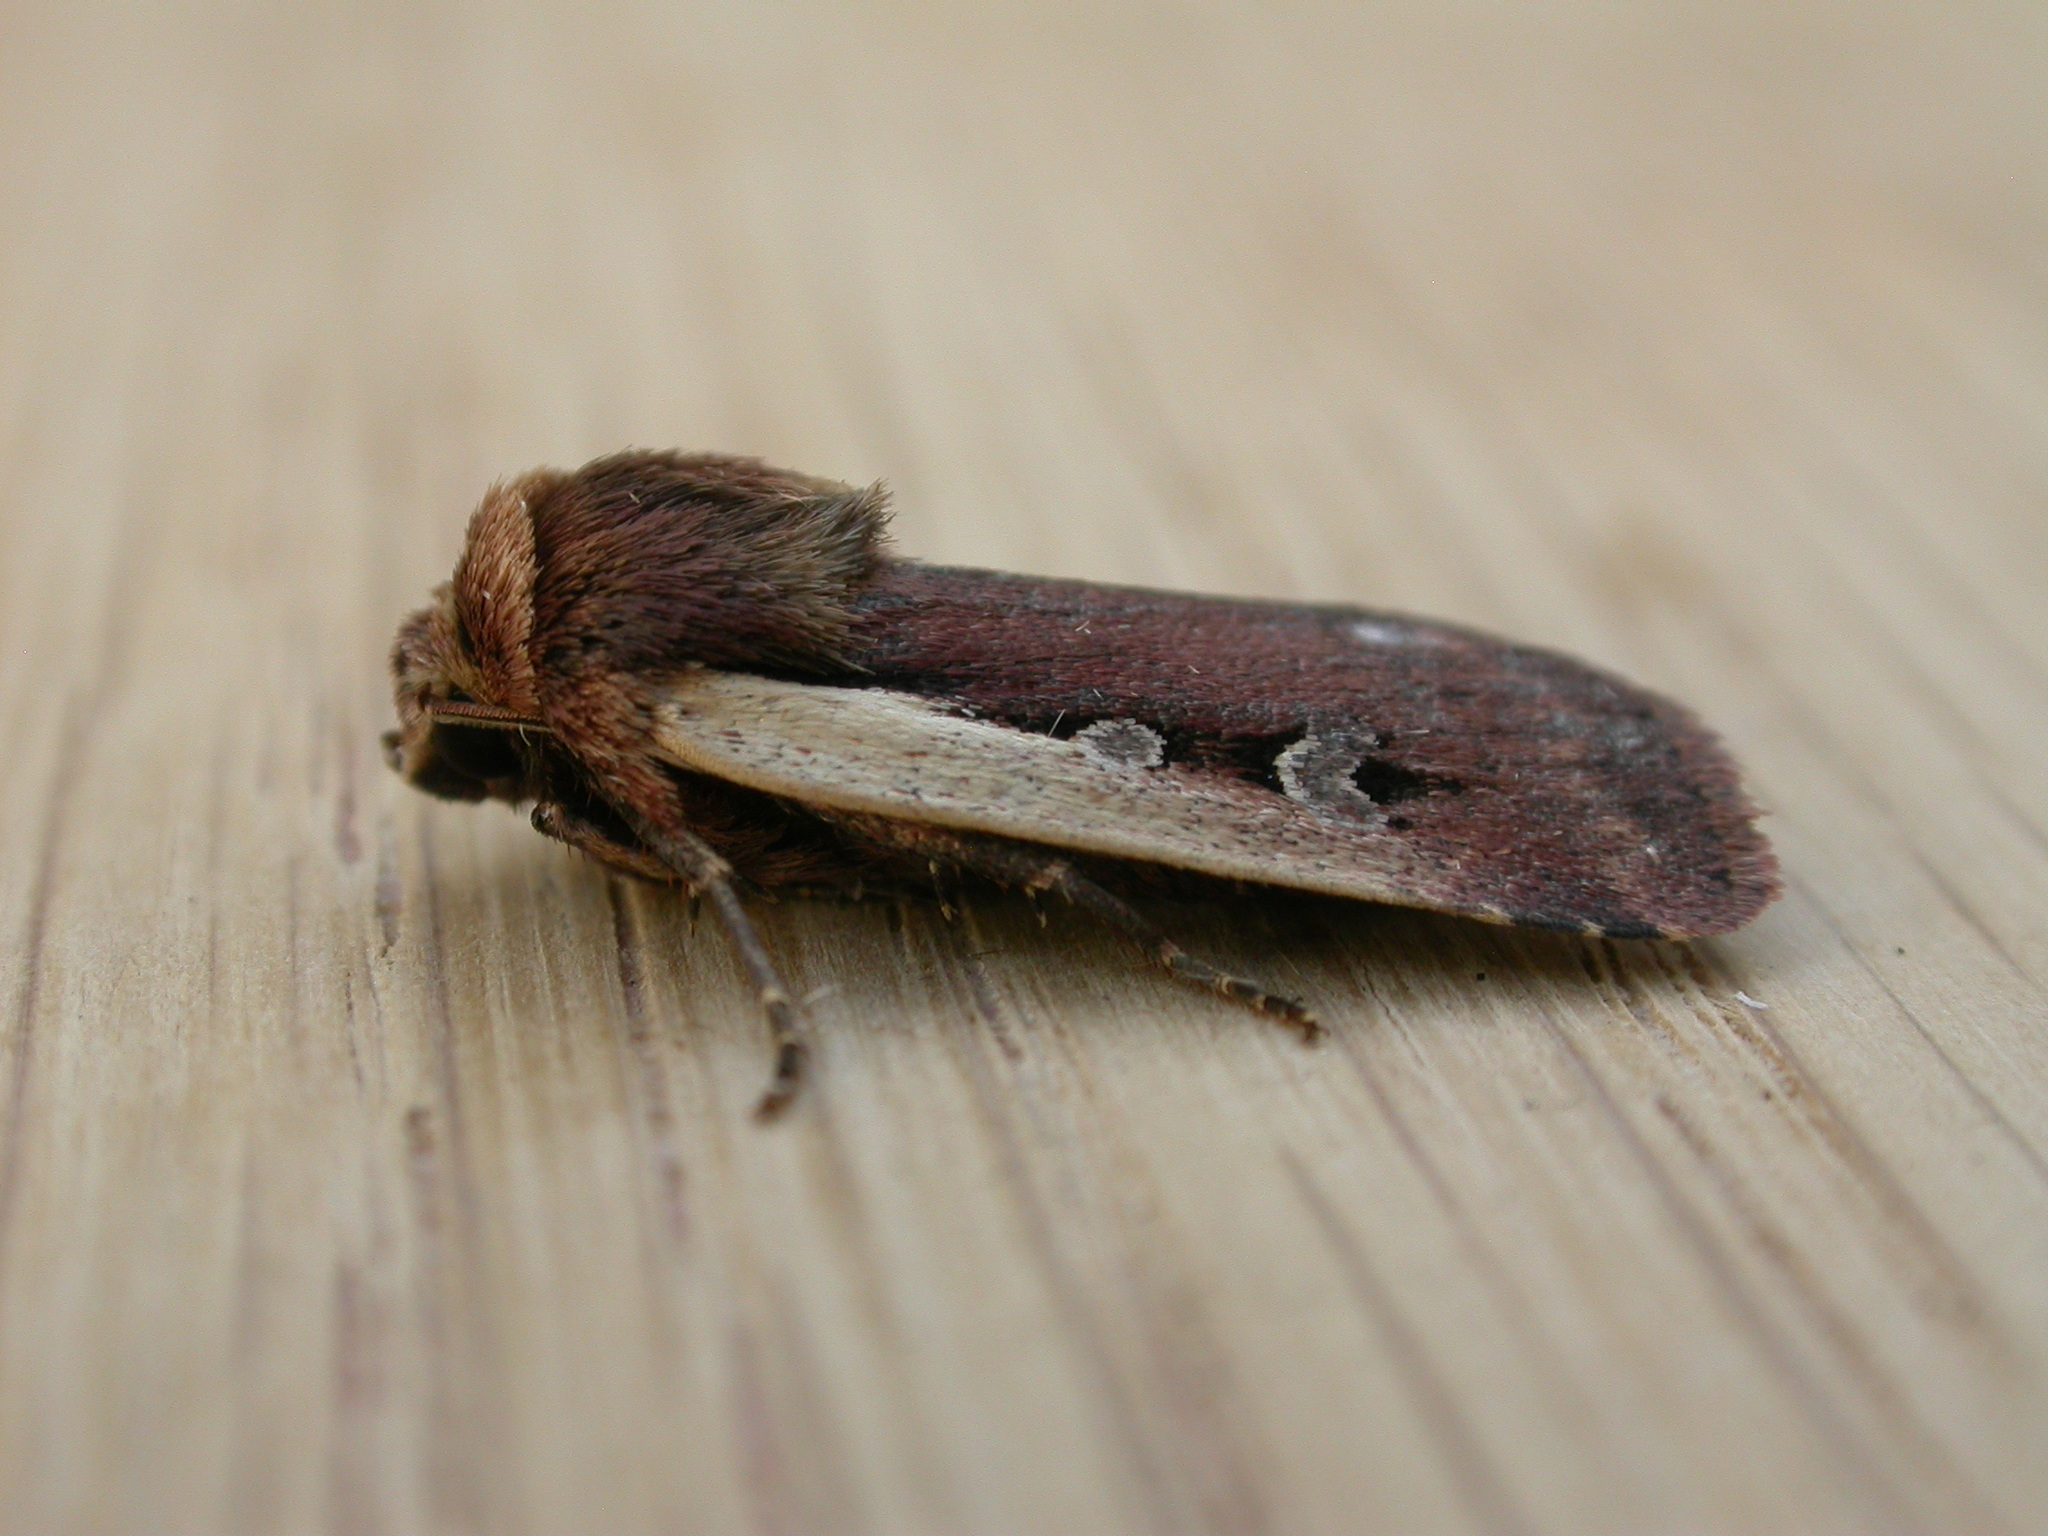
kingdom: Animalia
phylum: Arthropoda
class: Insecta
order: Lepidoptera
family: Noctuidae
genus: Ochropleura
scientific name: Ochropleura plecta
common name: Flame shoulder
